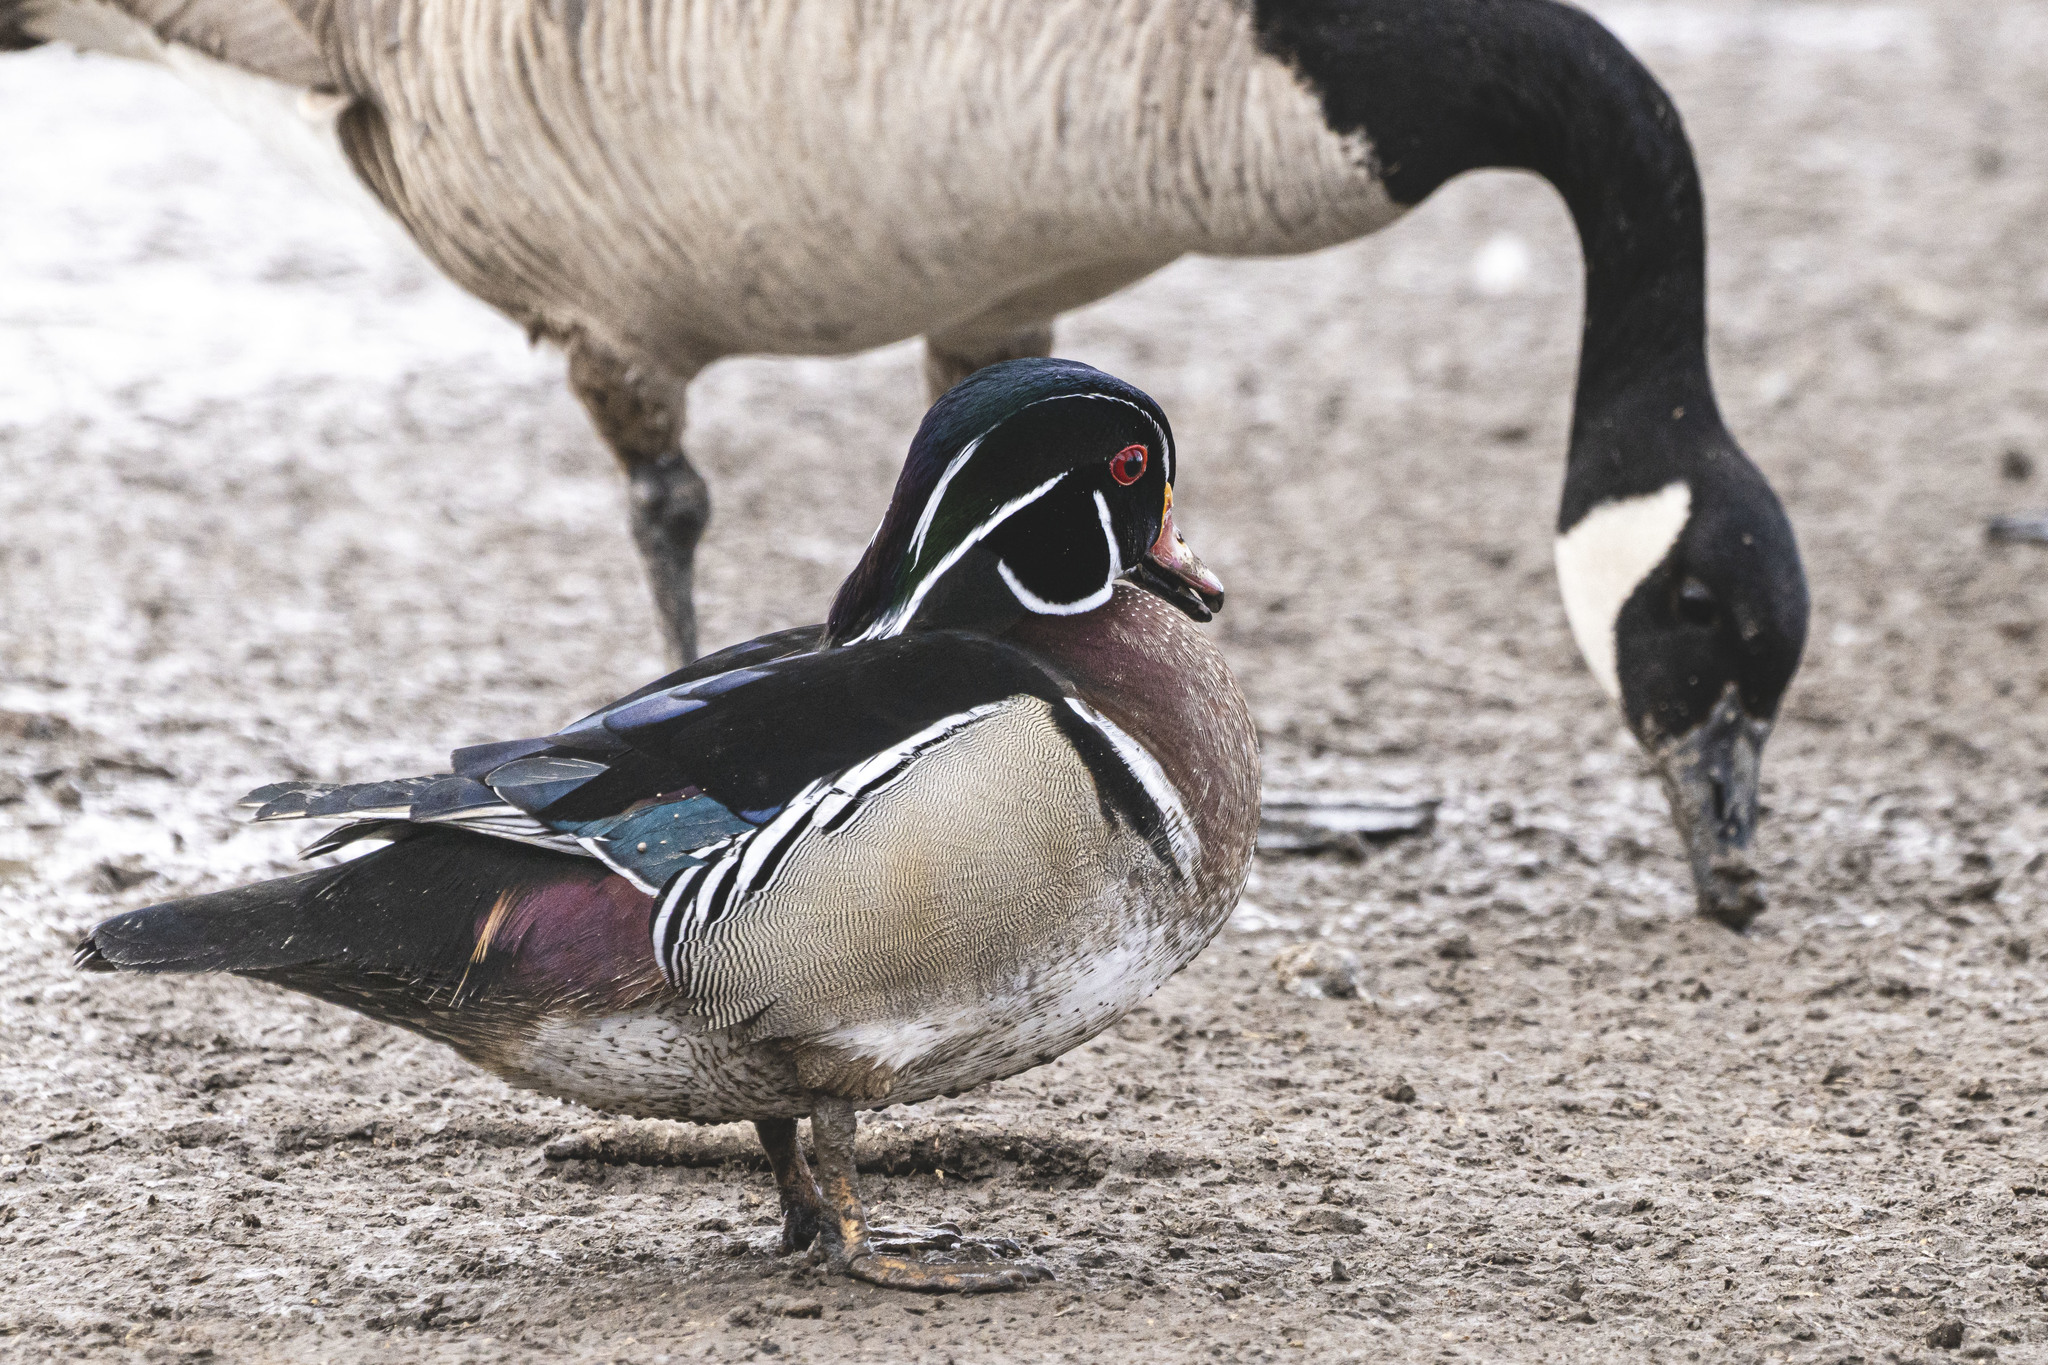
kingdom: Animalia
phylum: Chordata
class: Aves
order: Anseriformes
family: Anatidae
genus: Aix
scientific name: Aix sponsa
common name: Wood duck
